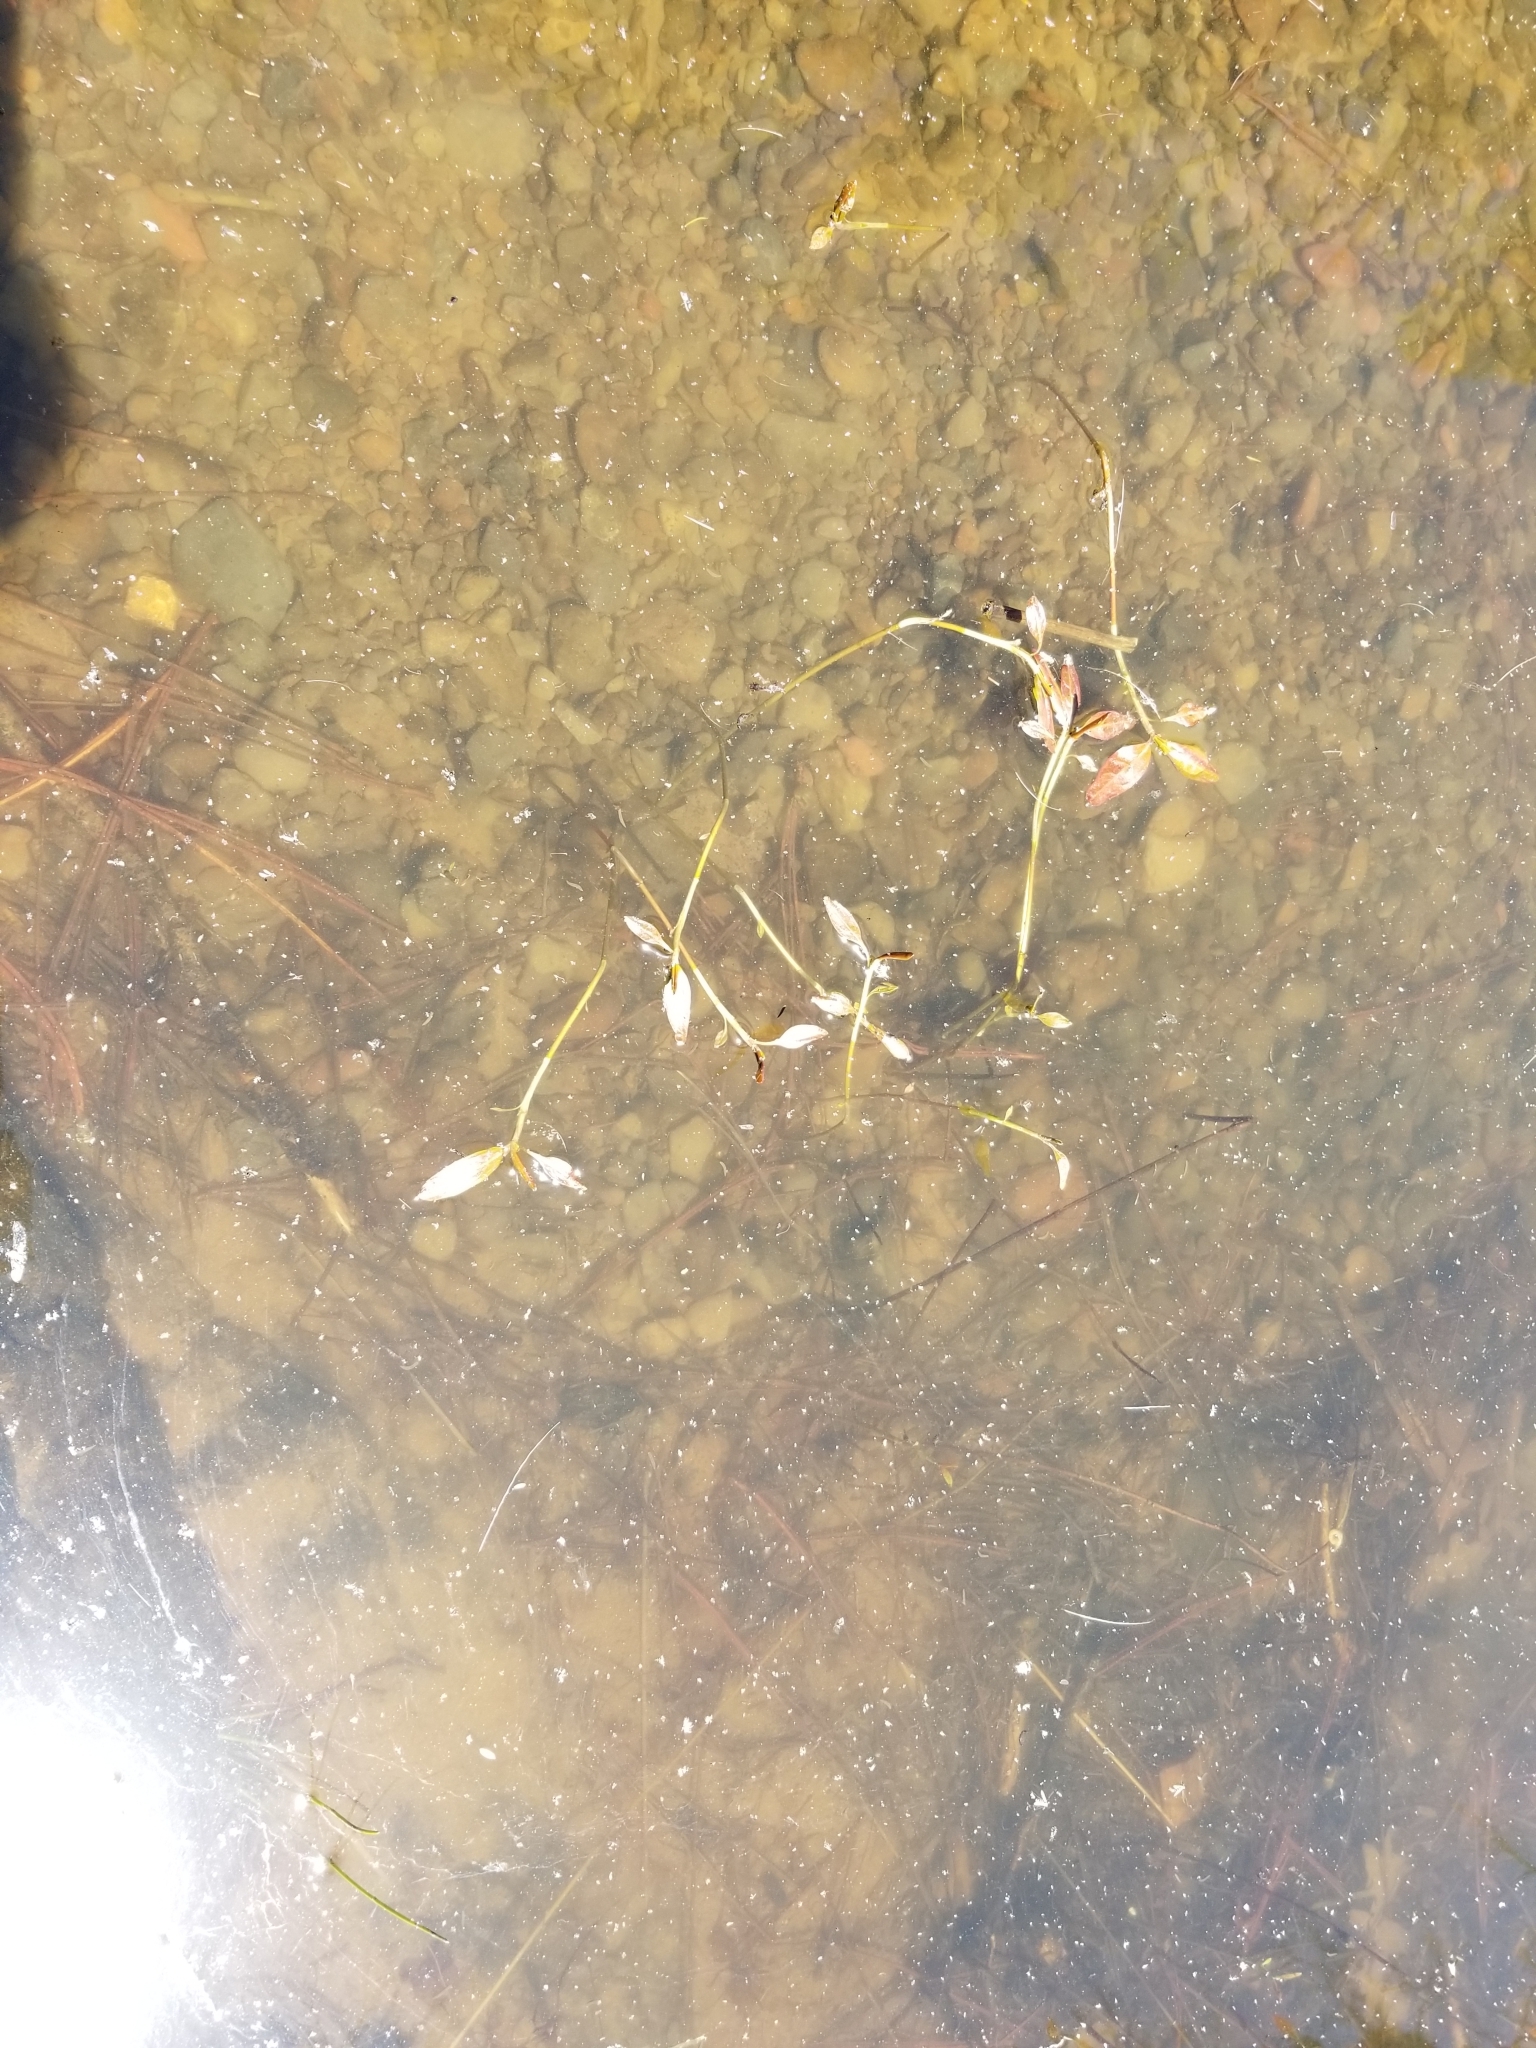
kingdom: Plantae
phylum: Tracheophyta
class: Liliopsida
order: Alismatales
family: Potamogetonaceae
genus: Potamogeton
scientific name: Potamogeton nodosus
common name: Loddon pondweed
